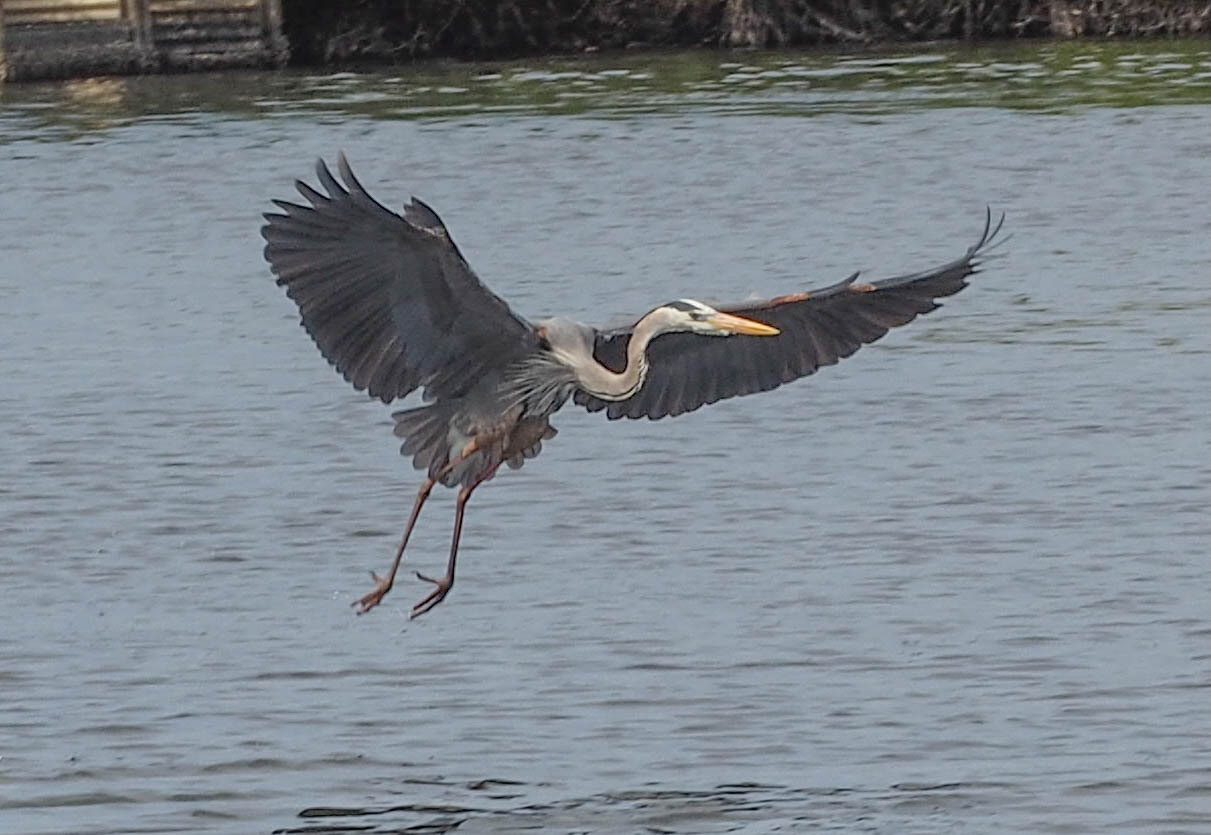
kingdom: Animalia
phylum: Chordata
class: Aves
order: Pelecaniformes
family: Ardeidae
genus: Ardea
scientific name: Ardea herodias
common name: Great blue heron
